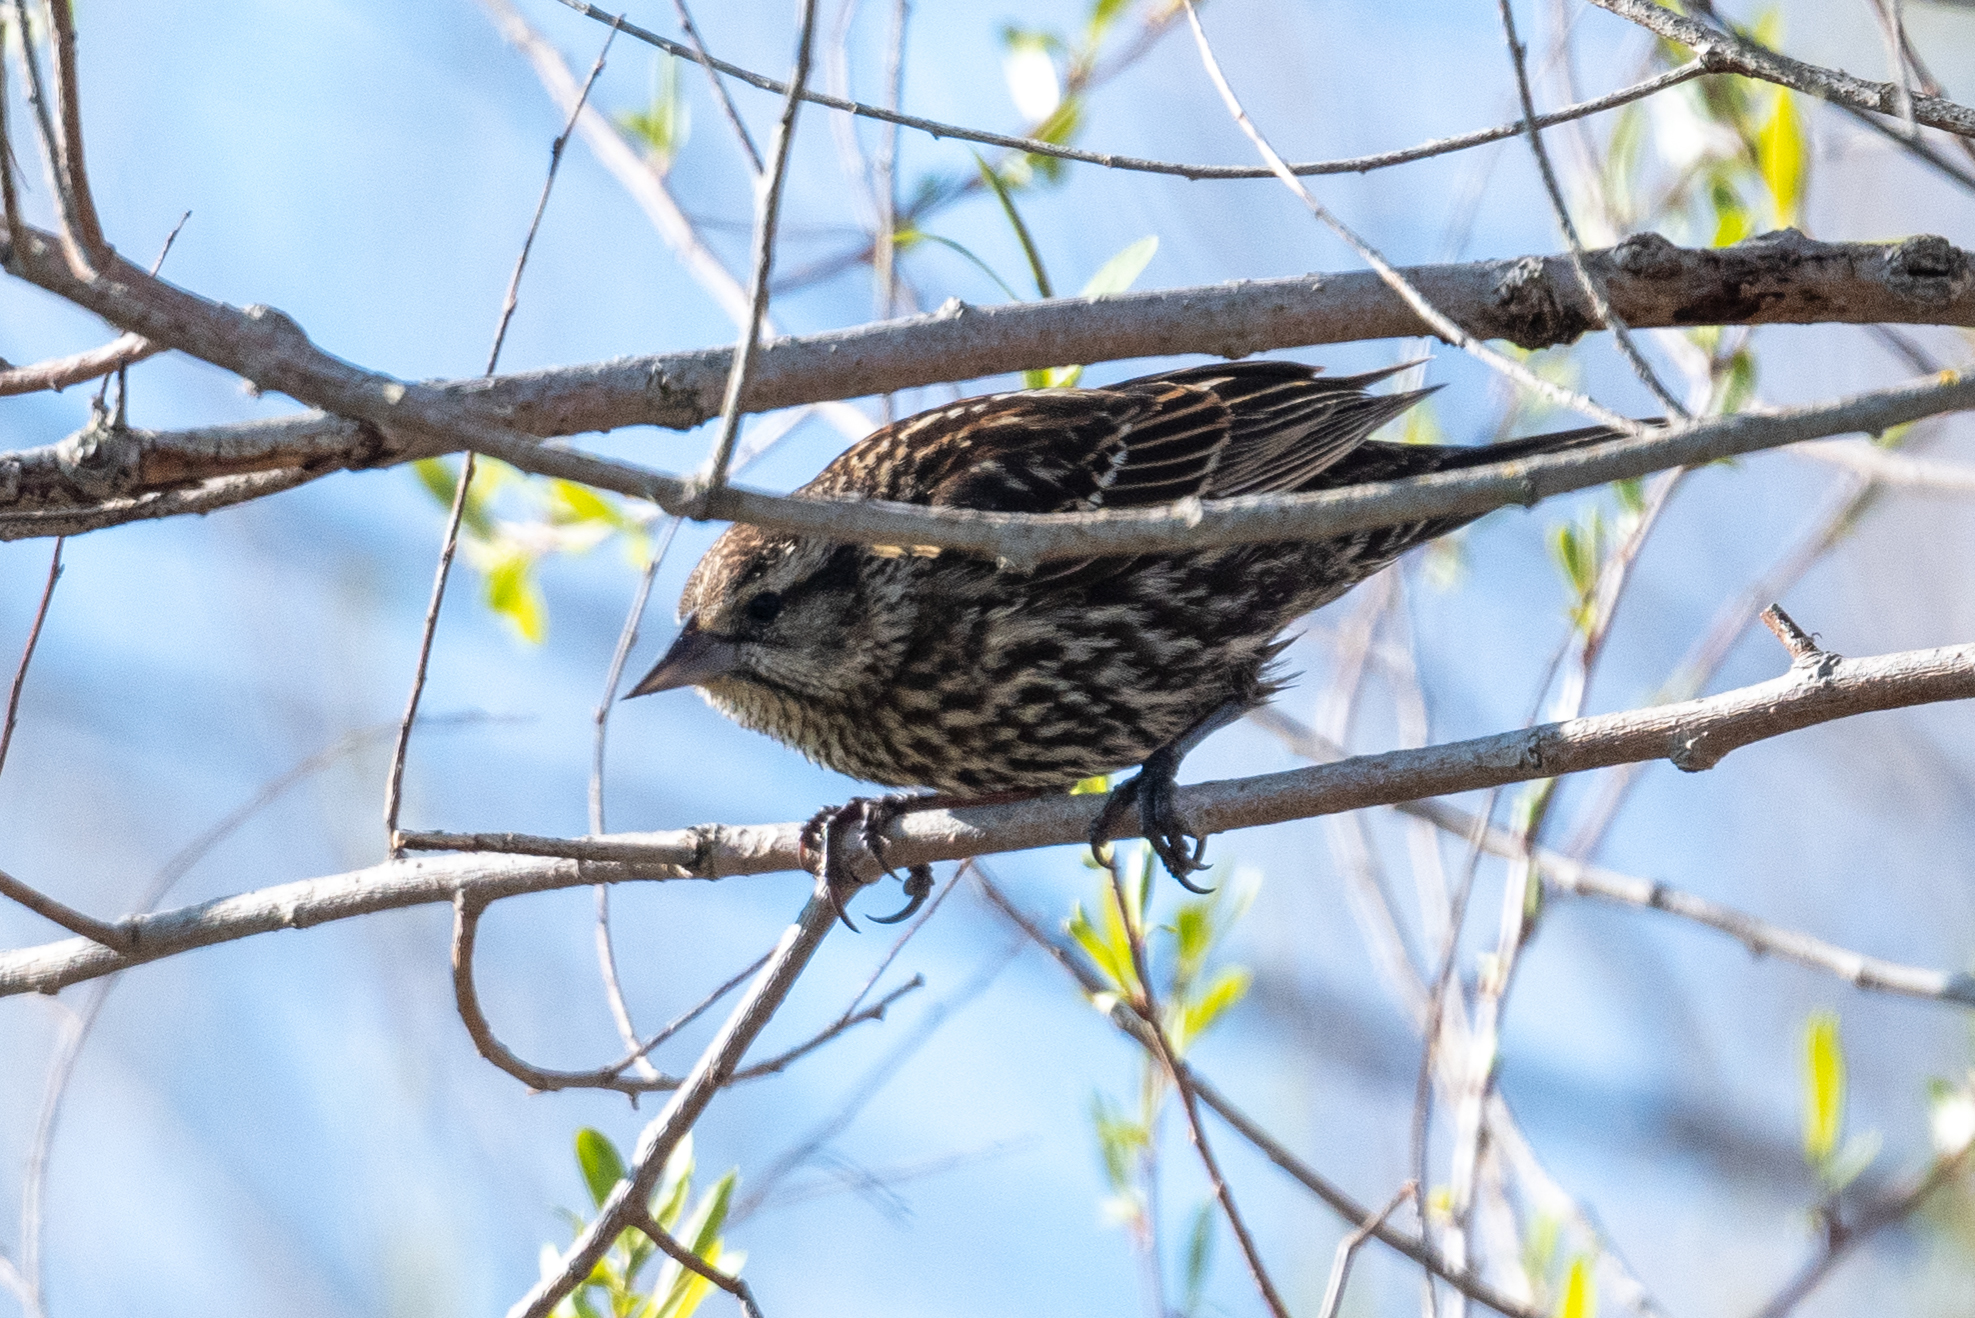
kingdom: Animalia
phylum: Chordata
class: Aves
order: Passeriformes
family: Icteridae
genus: Agelaius
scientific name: Agelaius phoeniceus
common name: Red-winged blackbird
